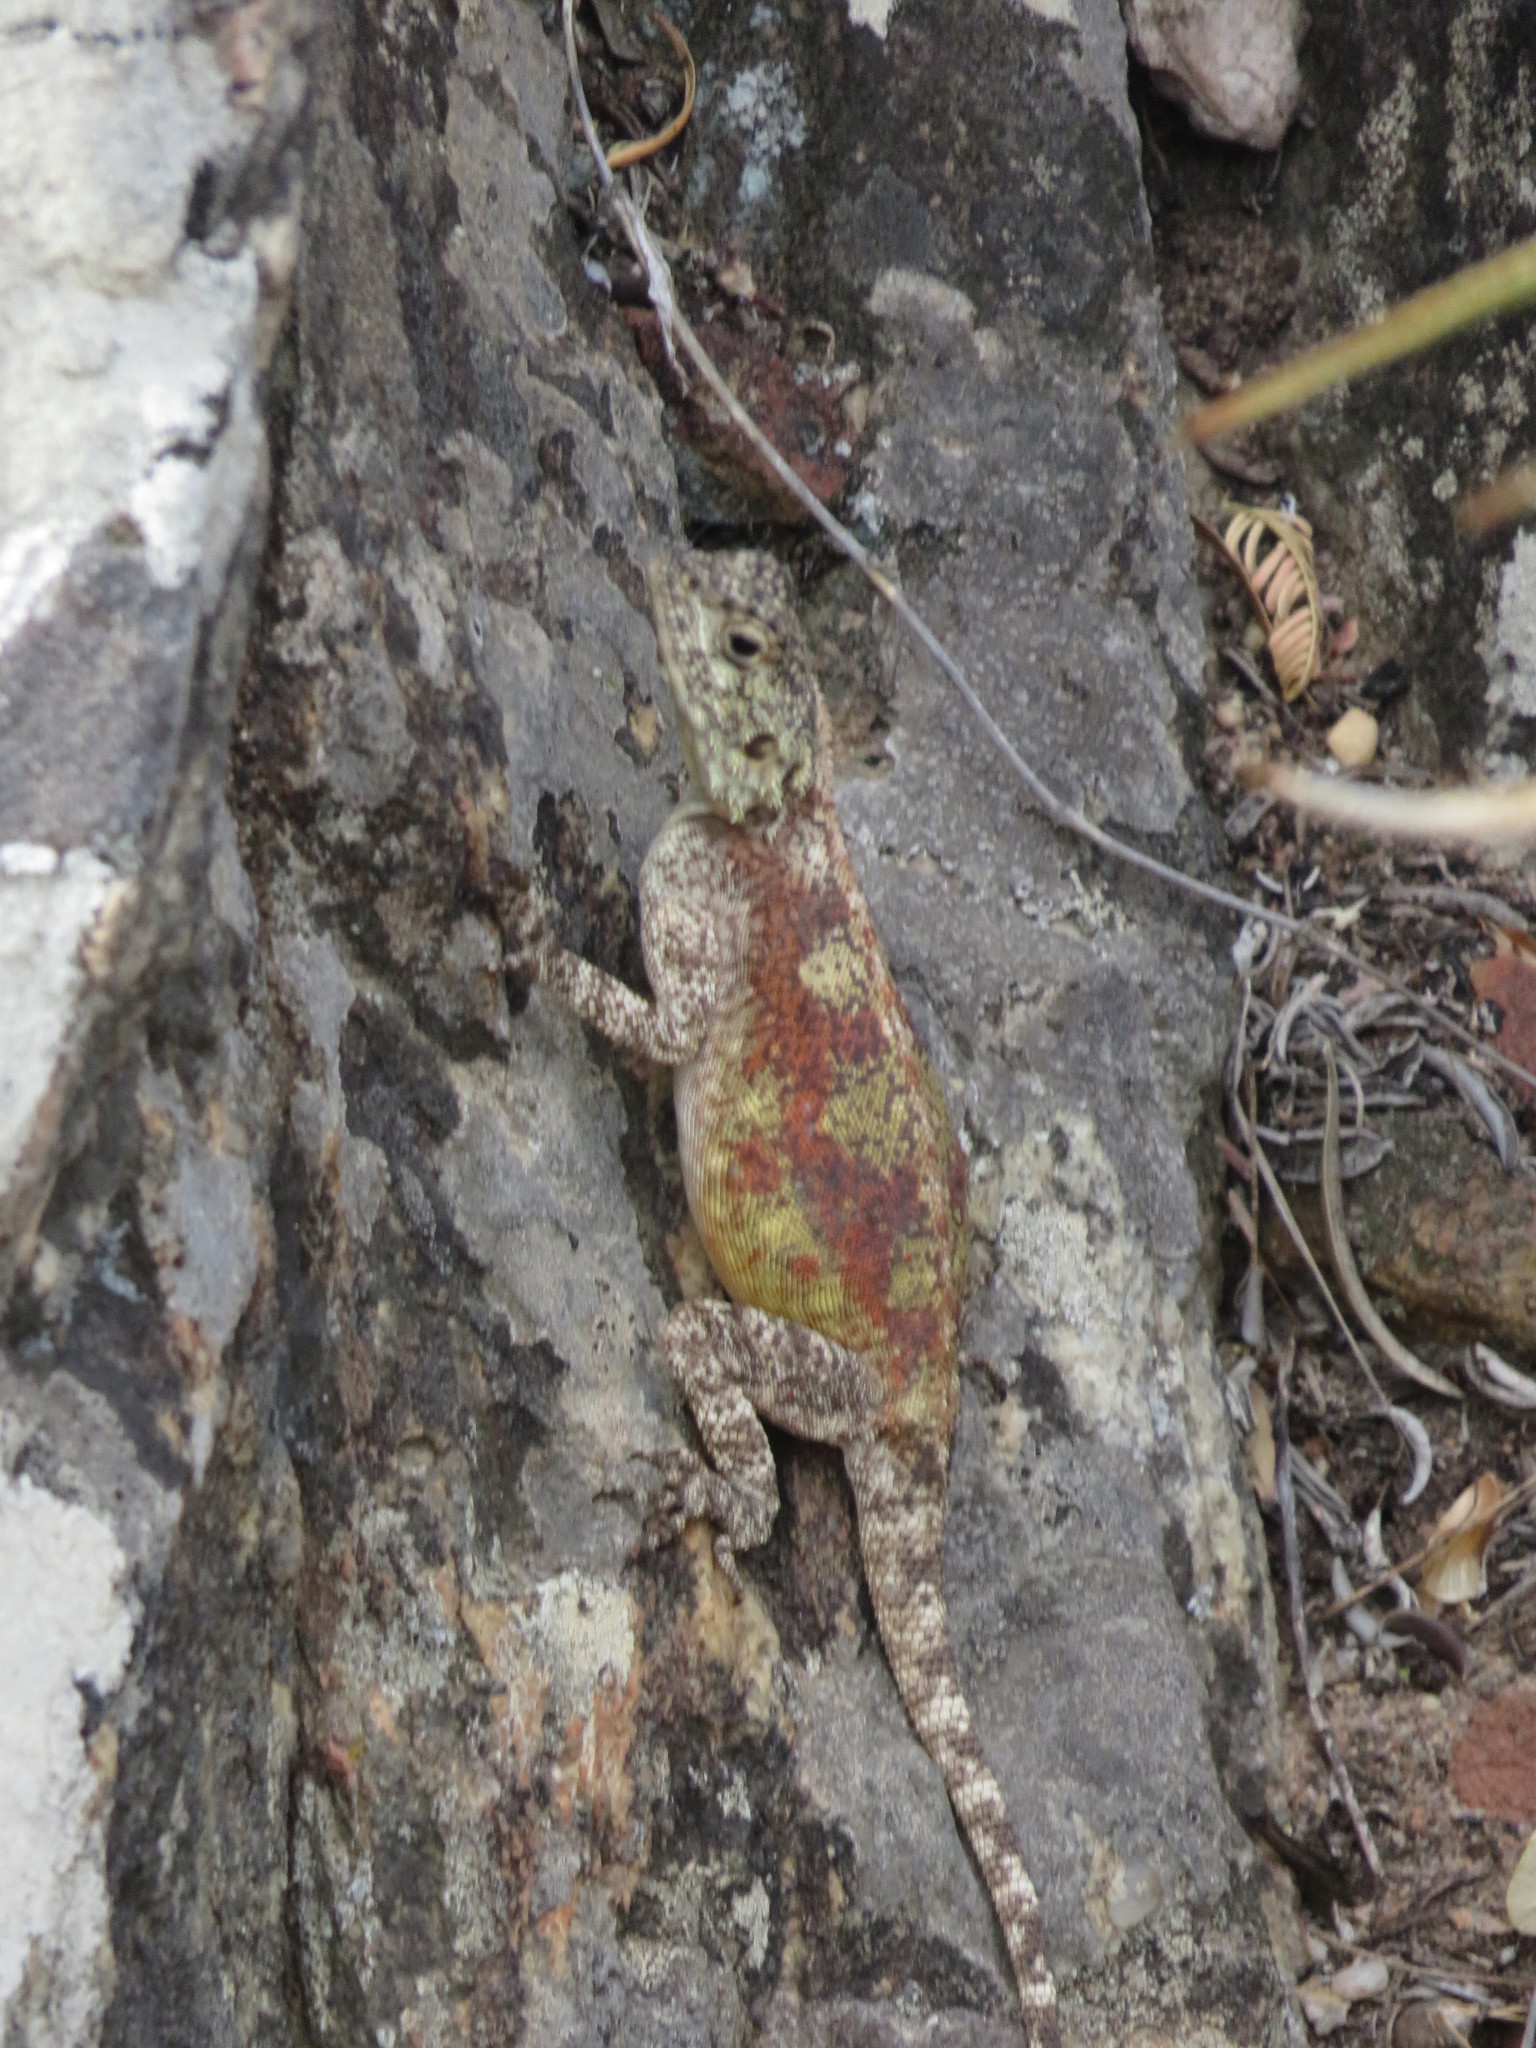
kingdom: Animalia
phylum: Chordata
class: Squamata
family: Agamidae
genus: Agama
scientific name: Agama atra
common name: Southern african rock agama
